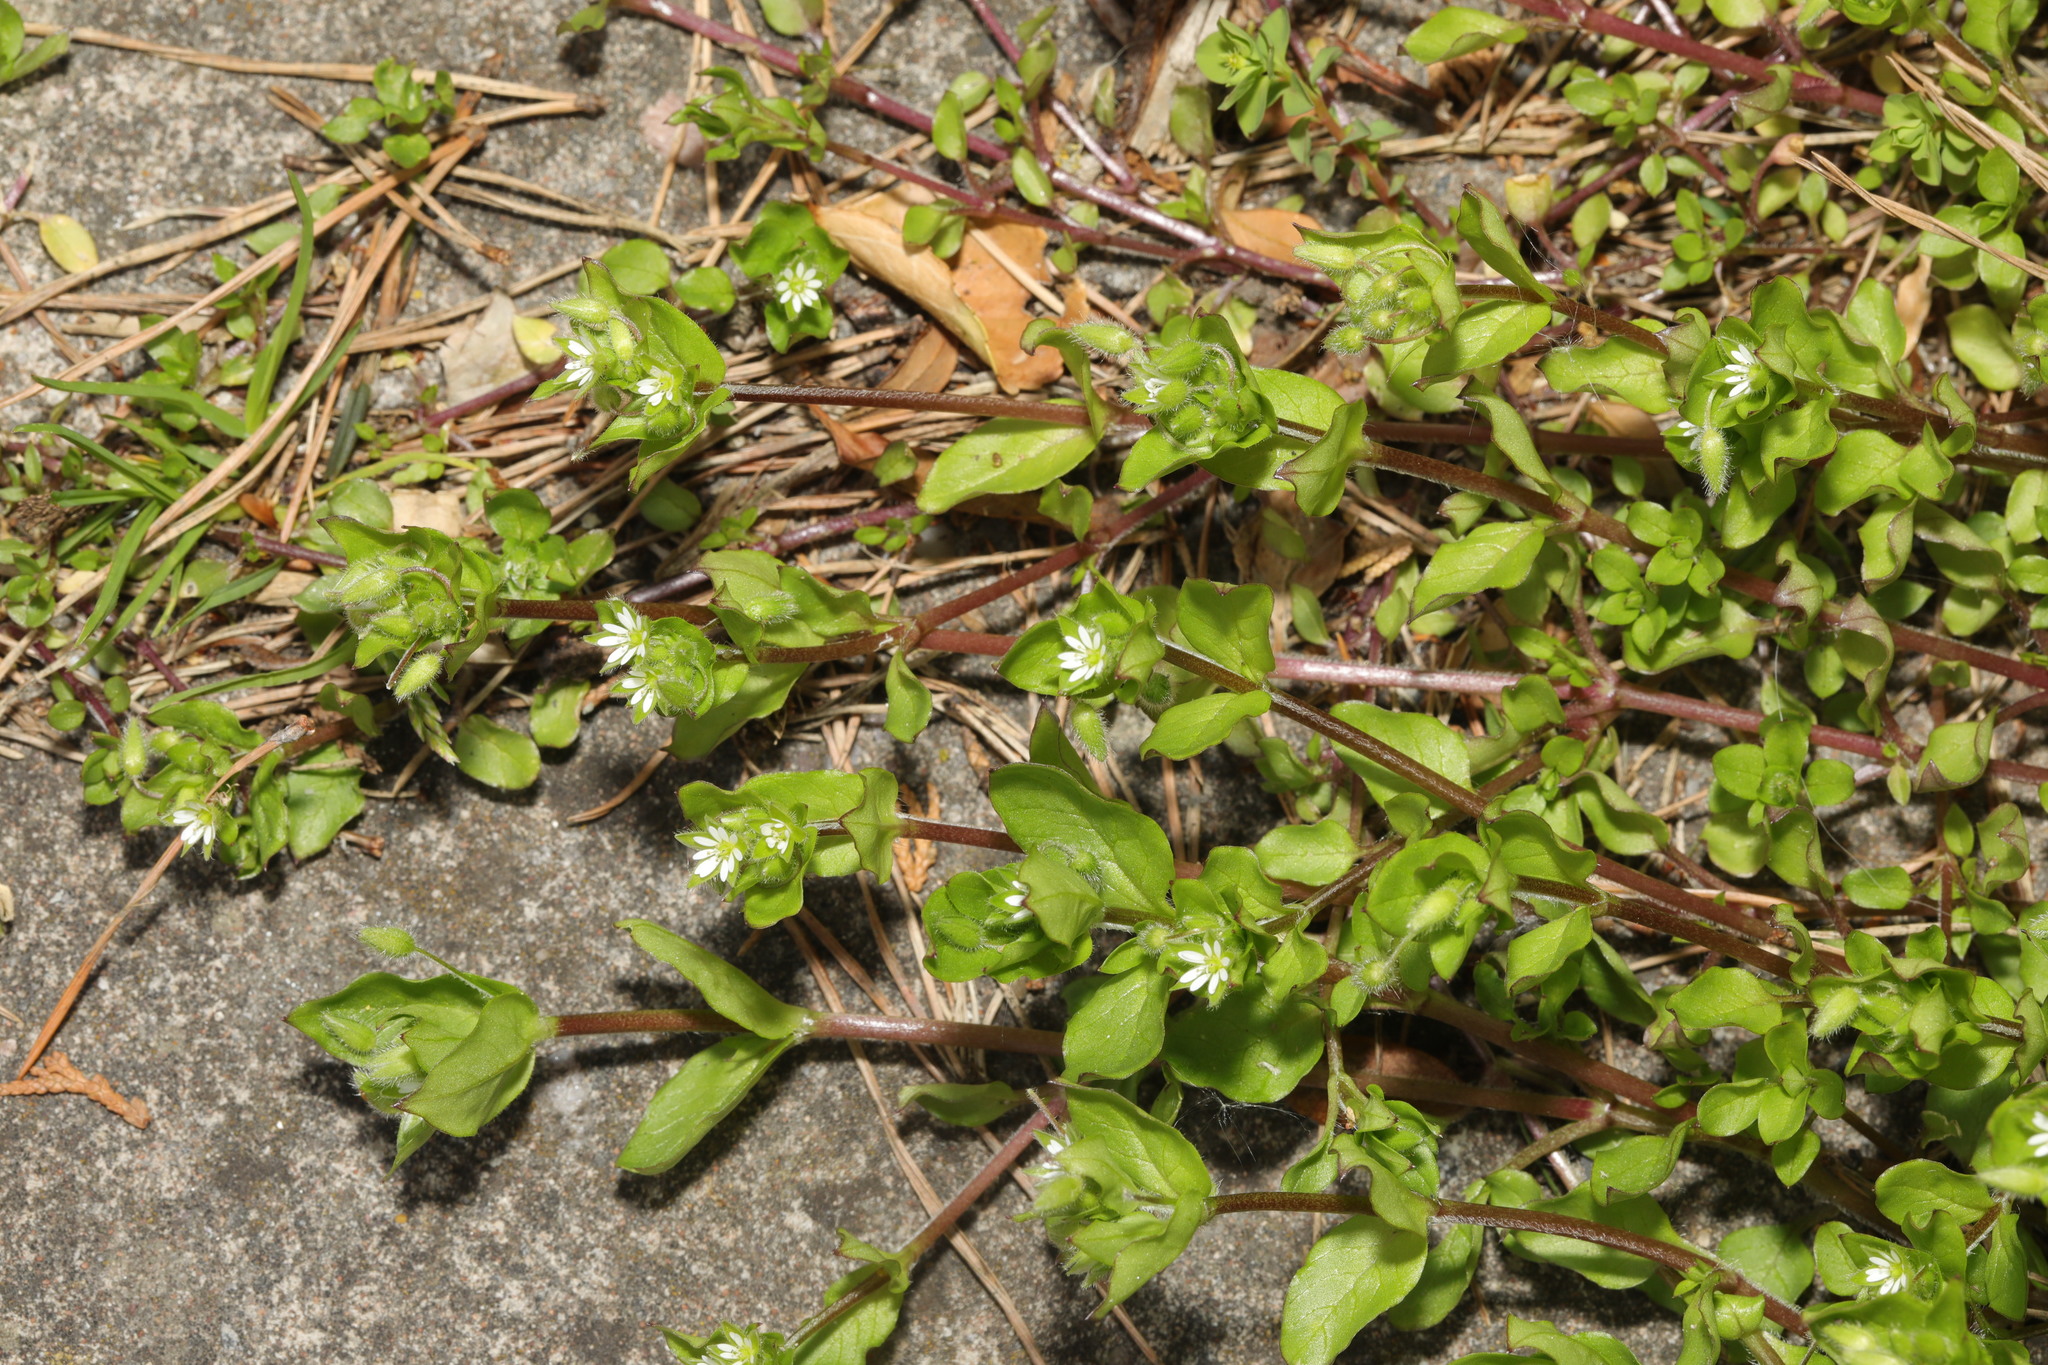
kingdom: Plantae
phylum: Tracheophyta
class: Magnoliopsida
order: Caryophyllales
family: Caryophyllaceae
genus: Stellaria
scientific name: Stellaria media
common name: Common chickweed
